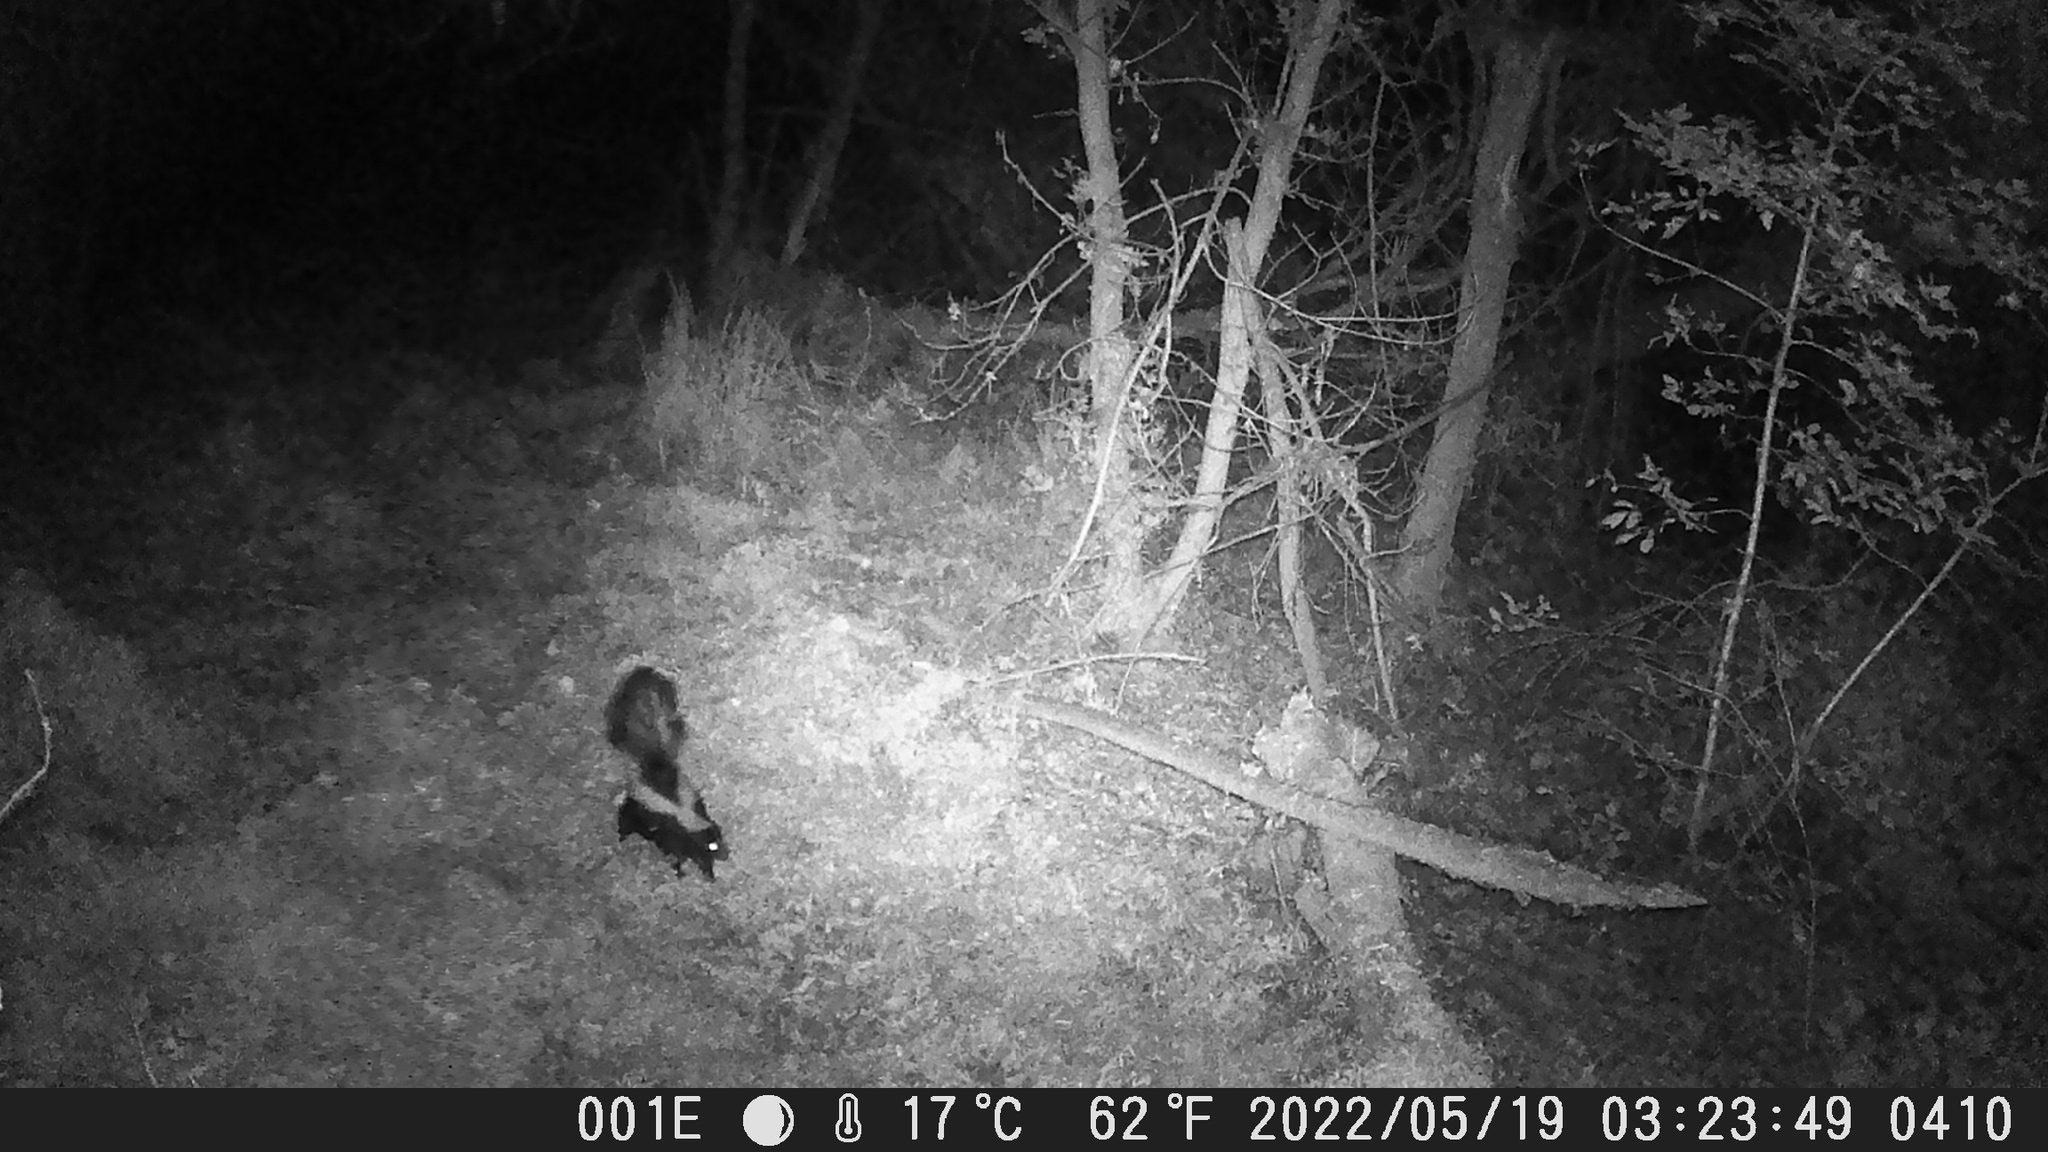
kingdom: Animalia
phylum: Chordata
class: Mammalia
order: Carnivora
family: Mephitidae
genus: Mephitis
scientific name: Mephitis mephitis
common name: Striped skunk
